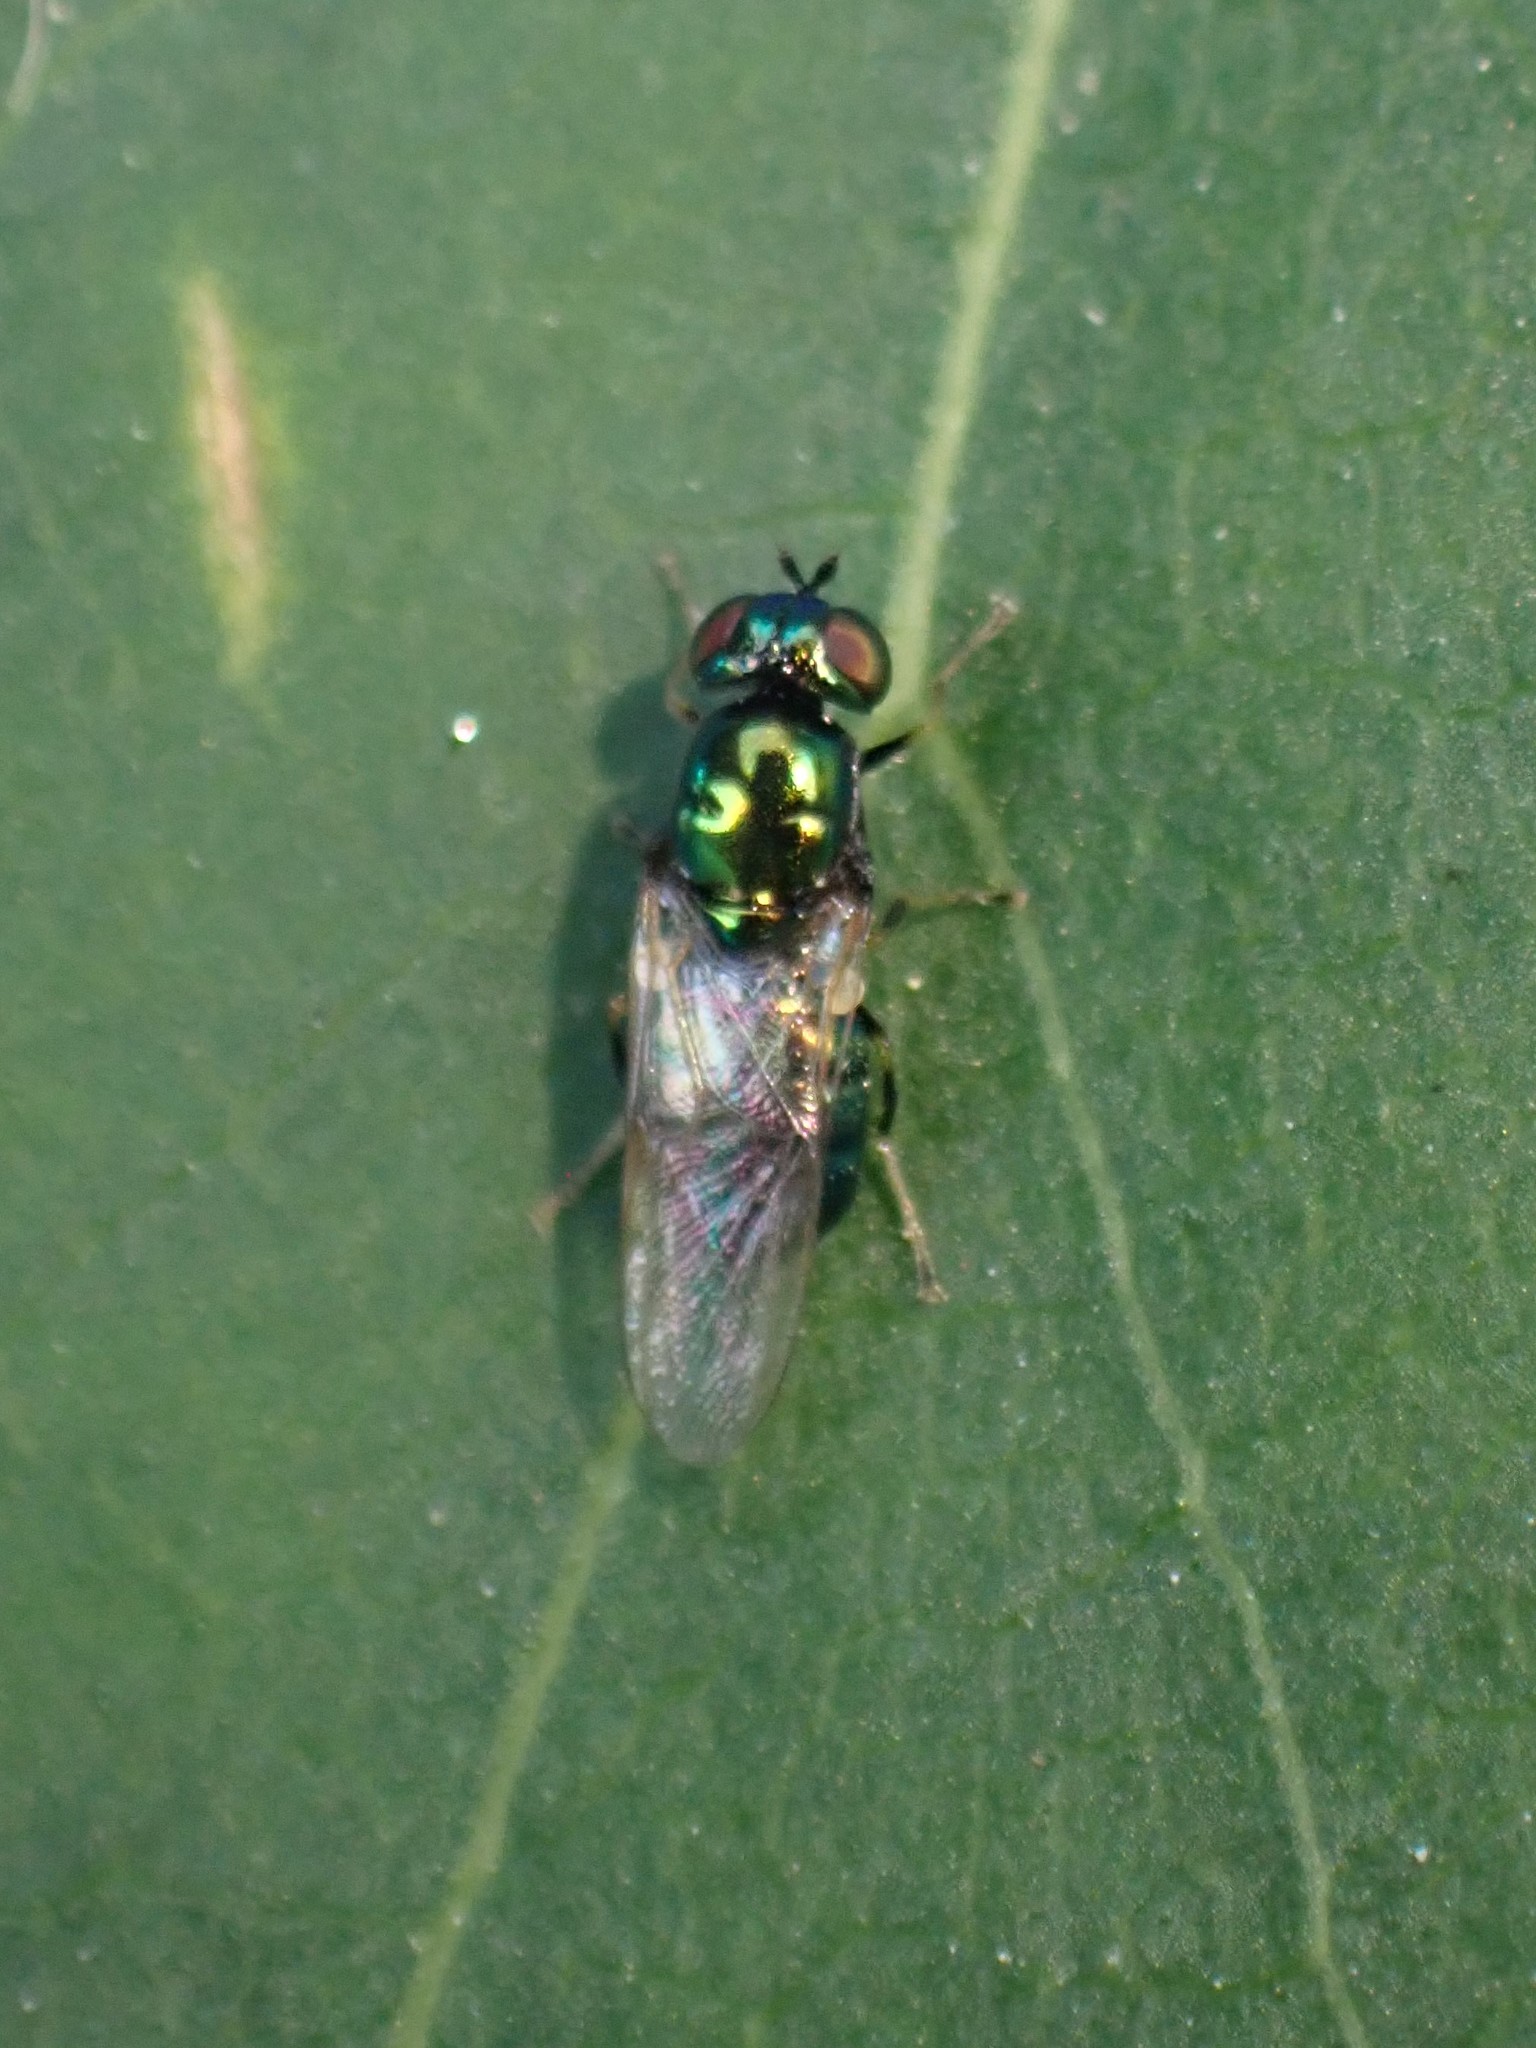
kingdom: Animalia
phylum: Arthropoda
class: Insecta
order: Diptera
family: Stratiomyidae
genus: Microchrysa
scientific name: Microchrysa polita
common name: Black-horned gem
